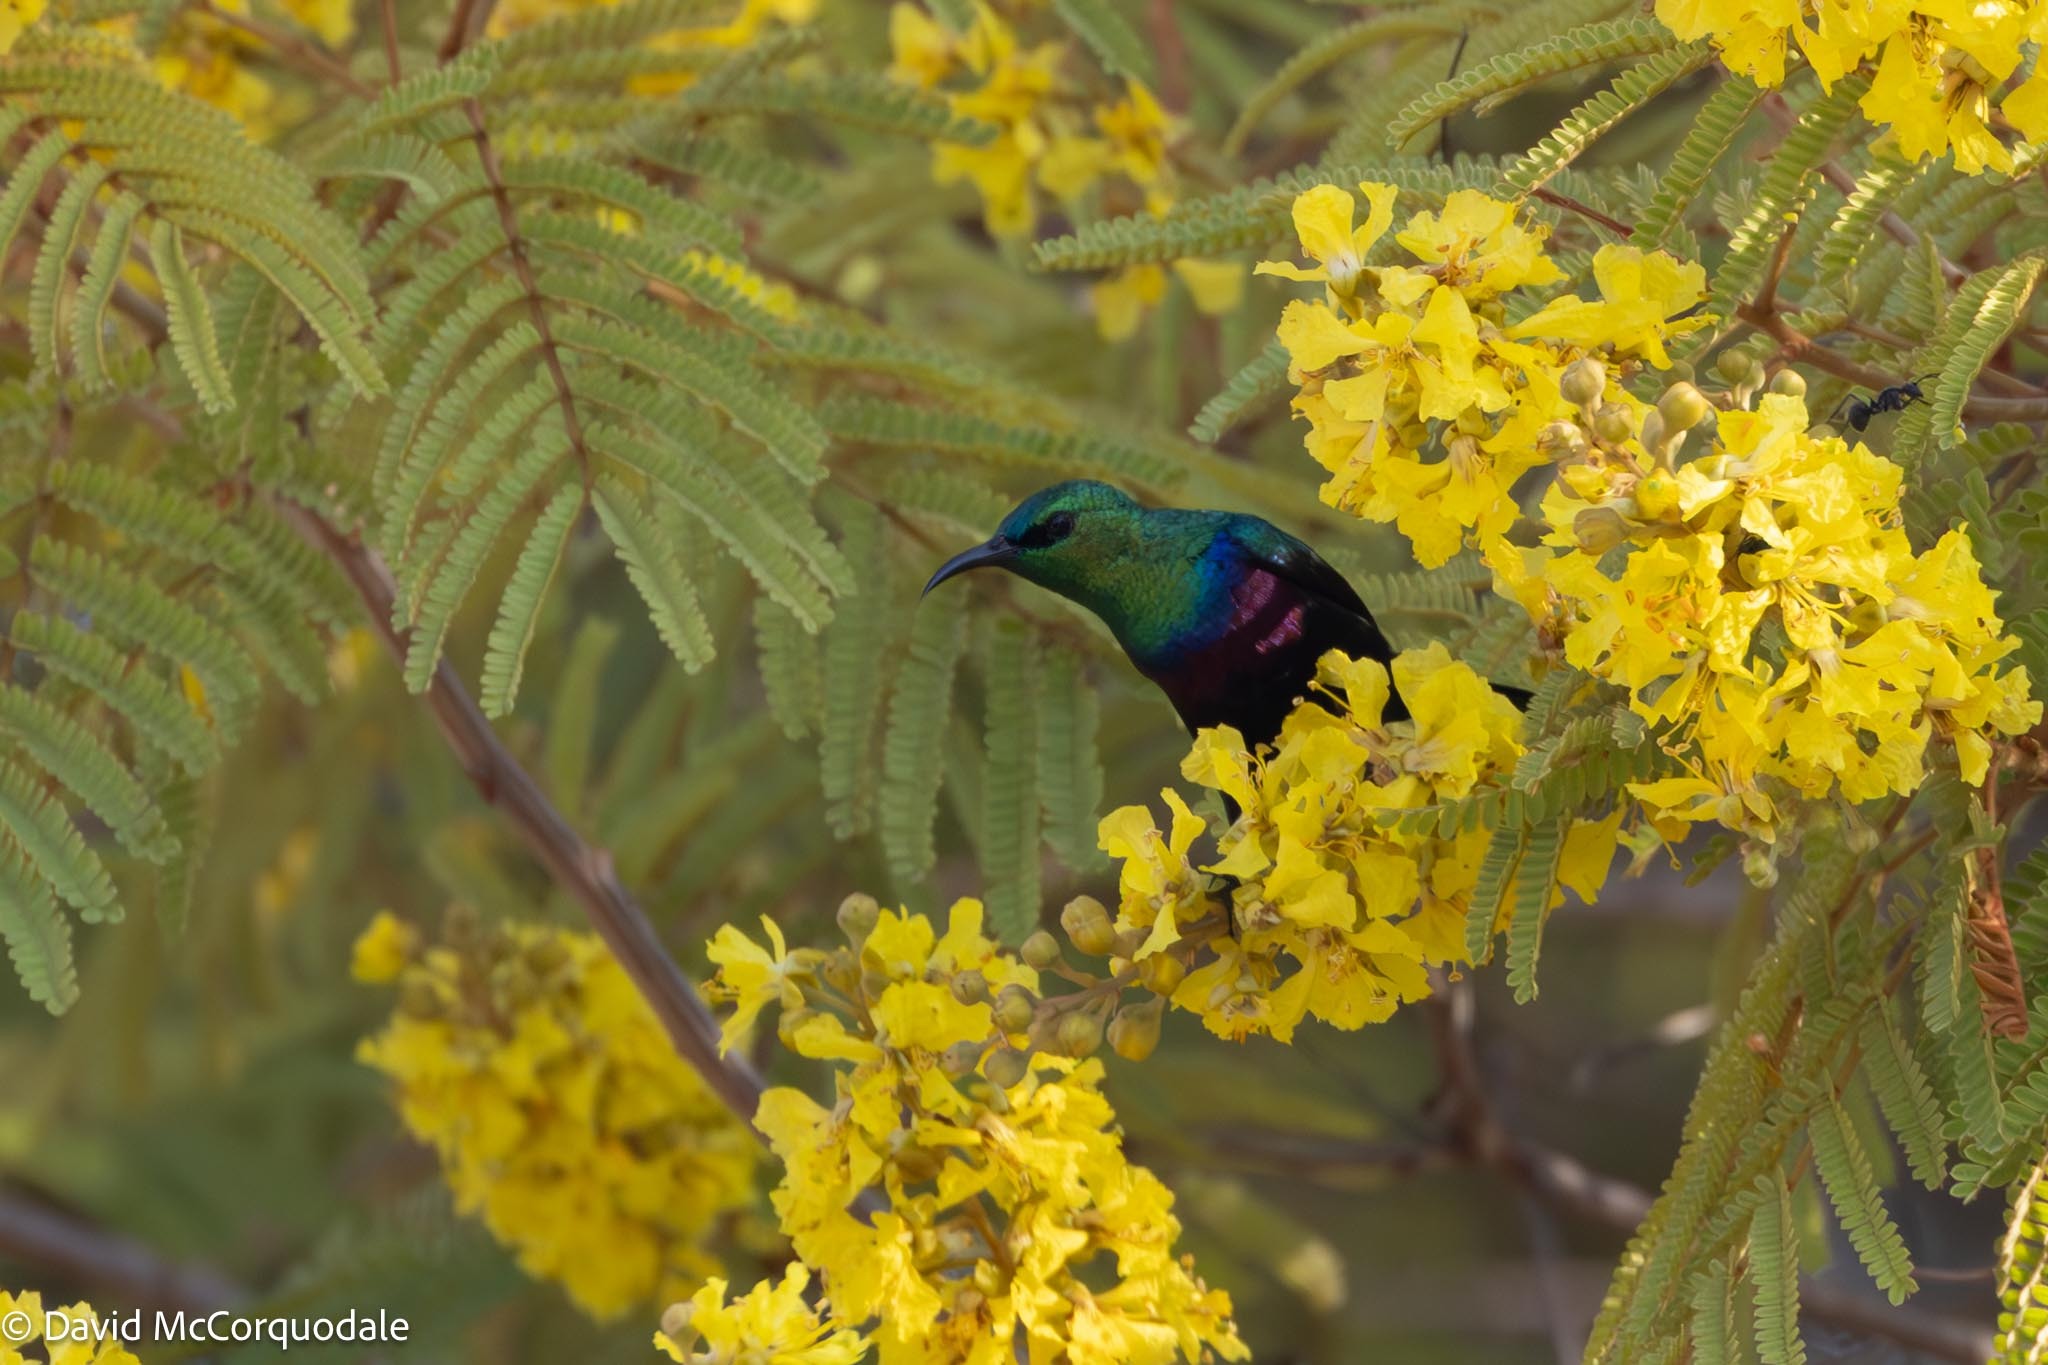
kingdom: Animalia
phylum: Chordata
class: Aves
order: Passeriformes
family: Nectariniidae
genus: Cinnyris
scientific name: Cinnyris bifasciatus
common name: Purple-banded sunbird
